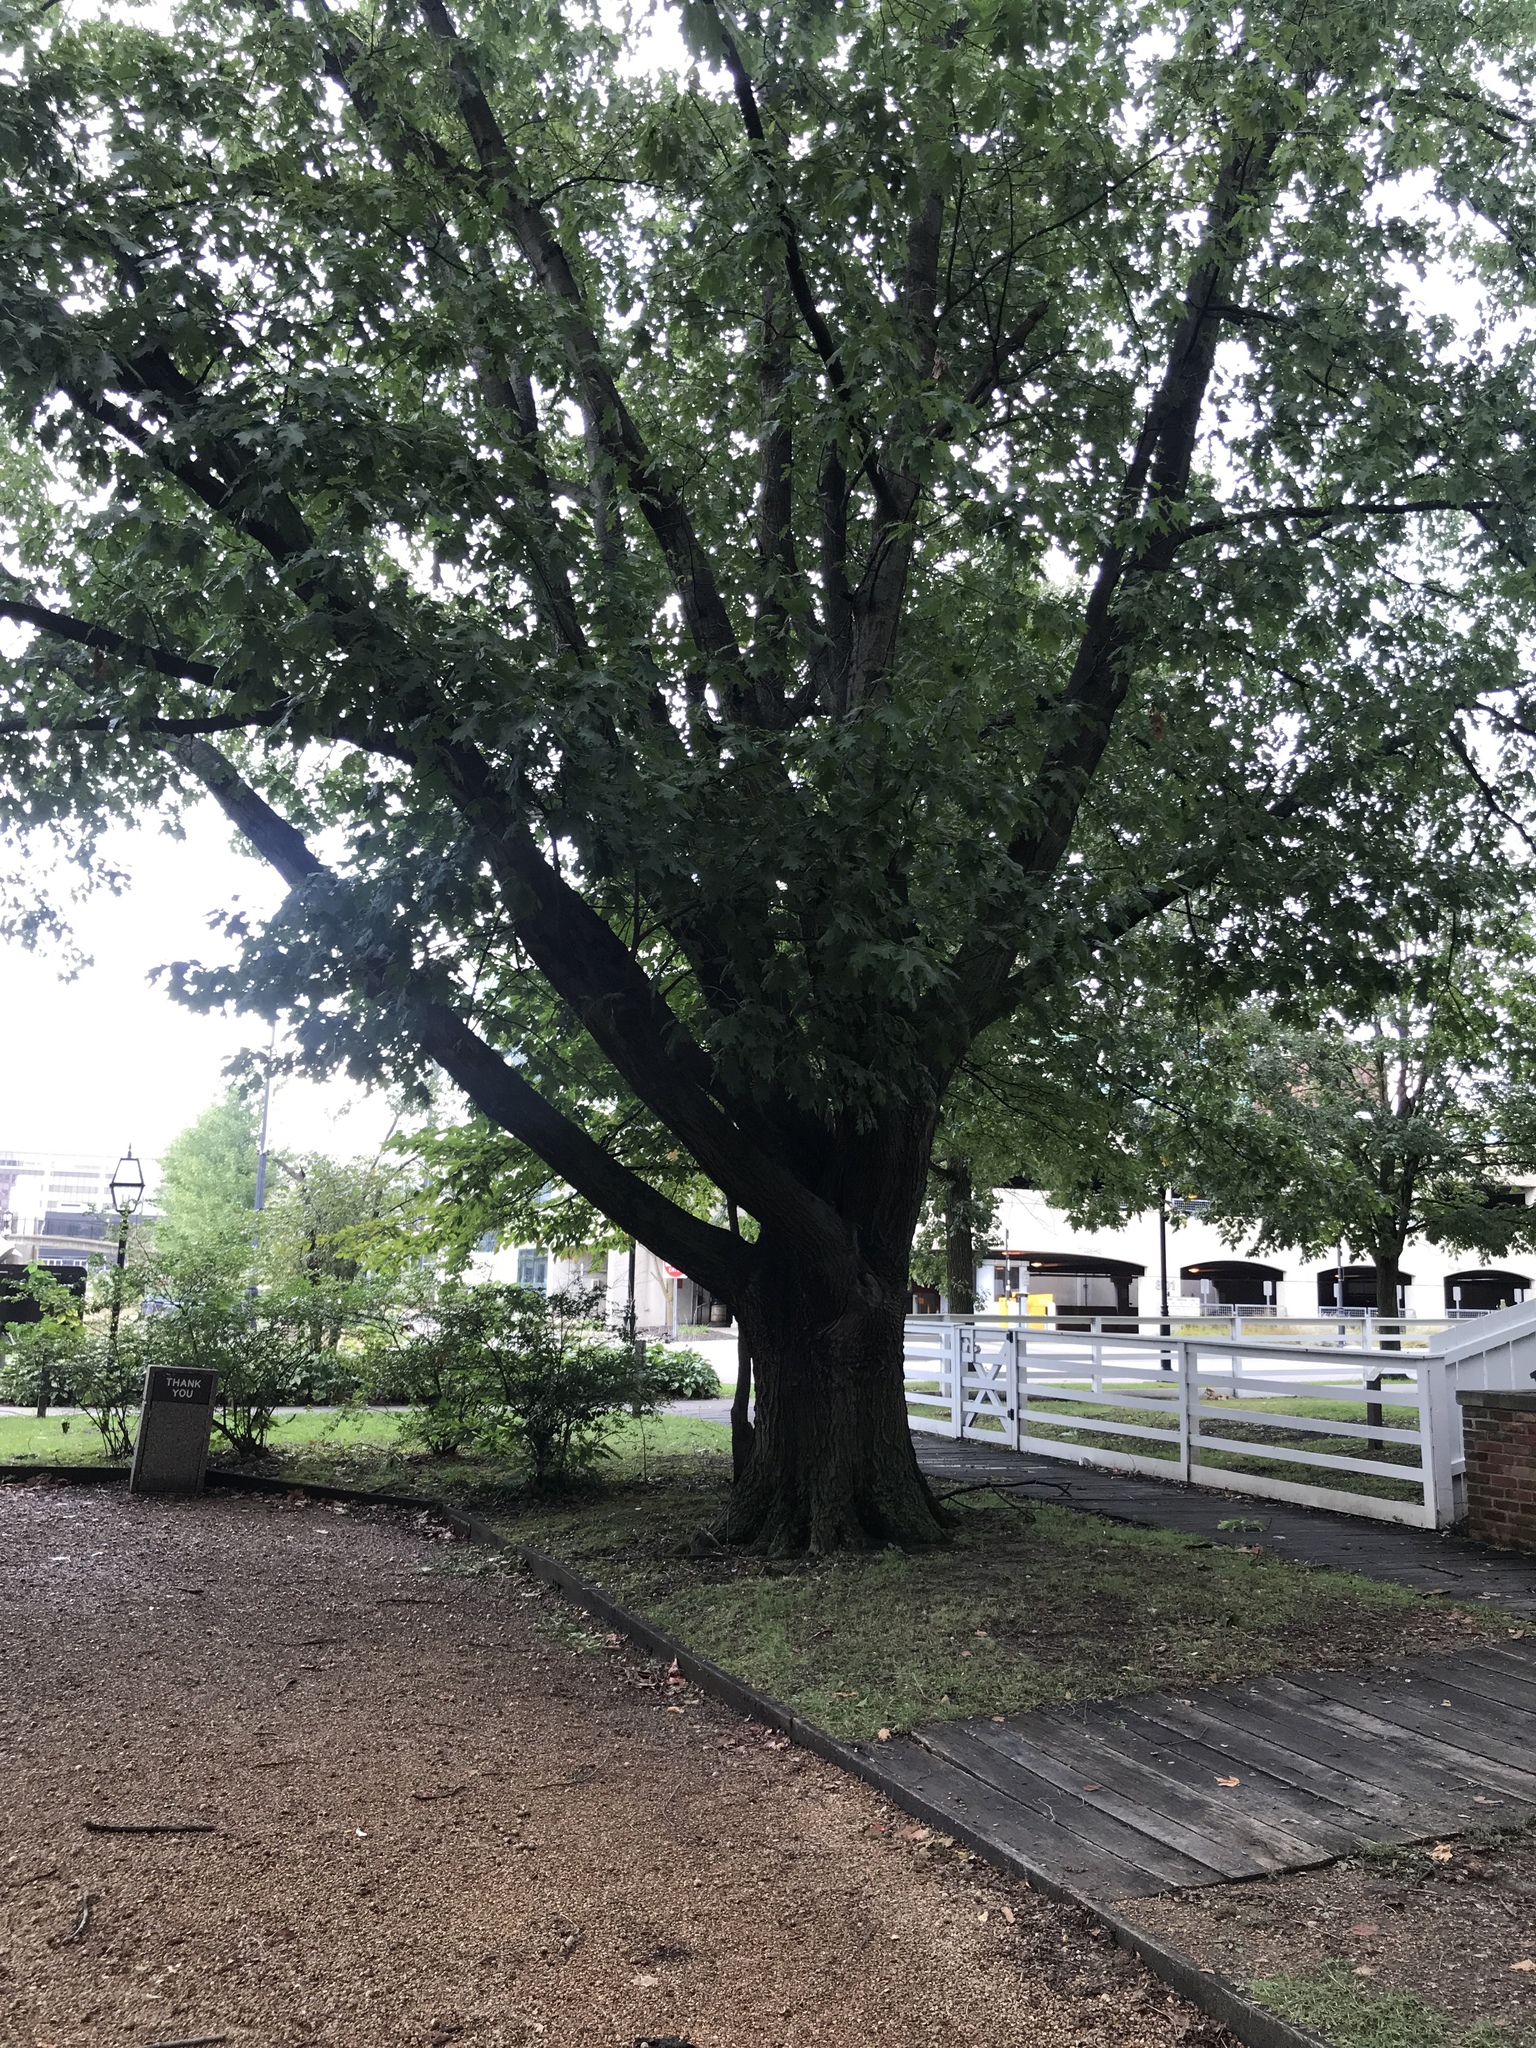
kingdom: Plantae
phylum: Tracheophyta
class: Magnoliopsida
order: Fagales
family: Fagaceae
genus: Quercus
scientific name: Quercus rubra
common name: Red oak
